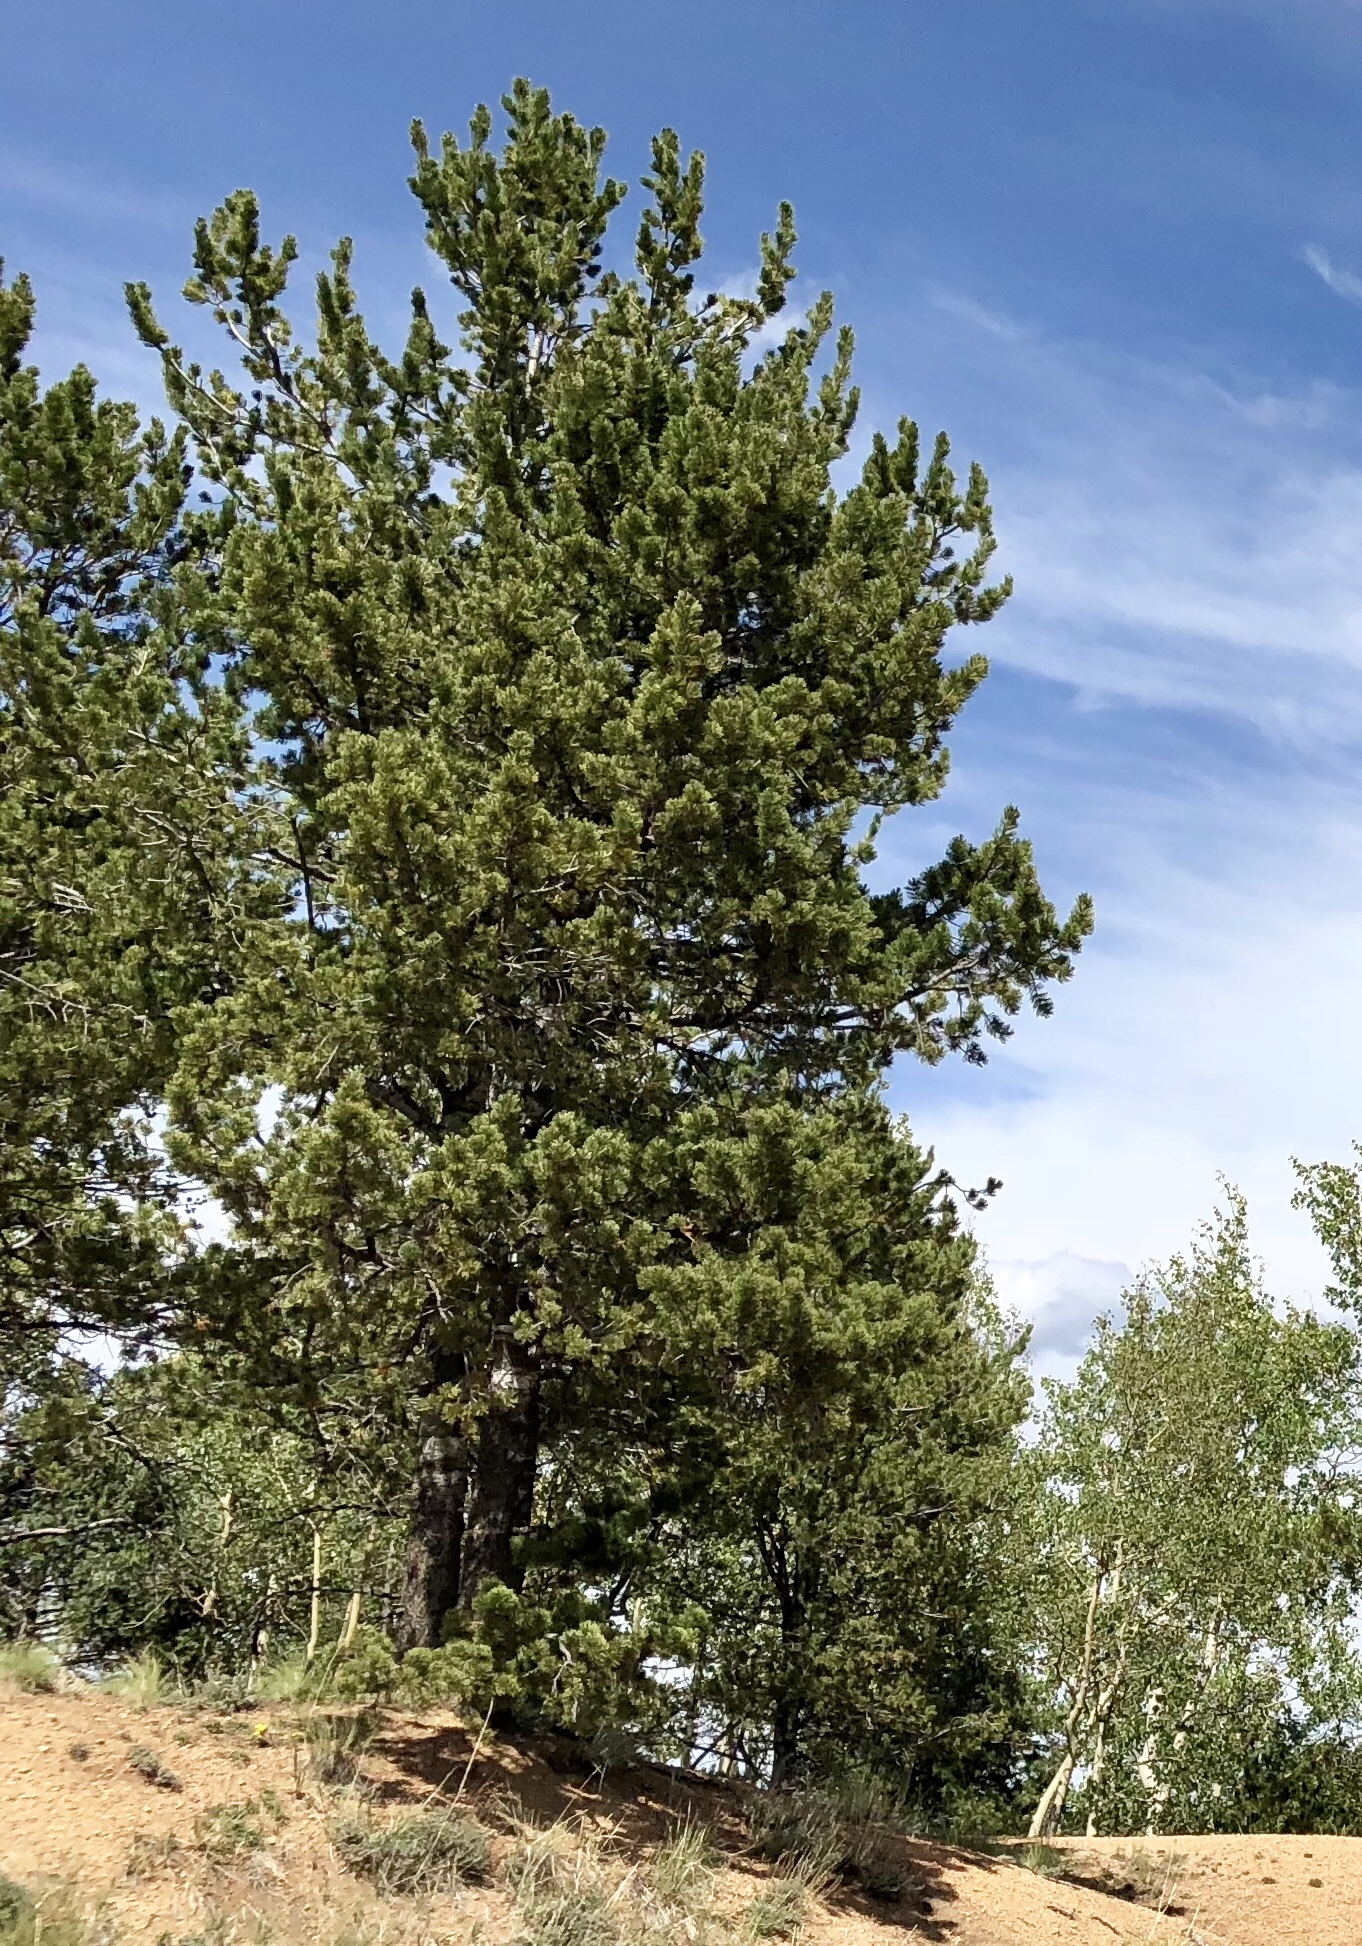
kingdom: Plantae
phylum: Tracheophyta
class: Pinopsida
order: Pinales
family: Pinaceae
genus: Pinus
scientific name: Pinus flexilis
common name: Limber pine
